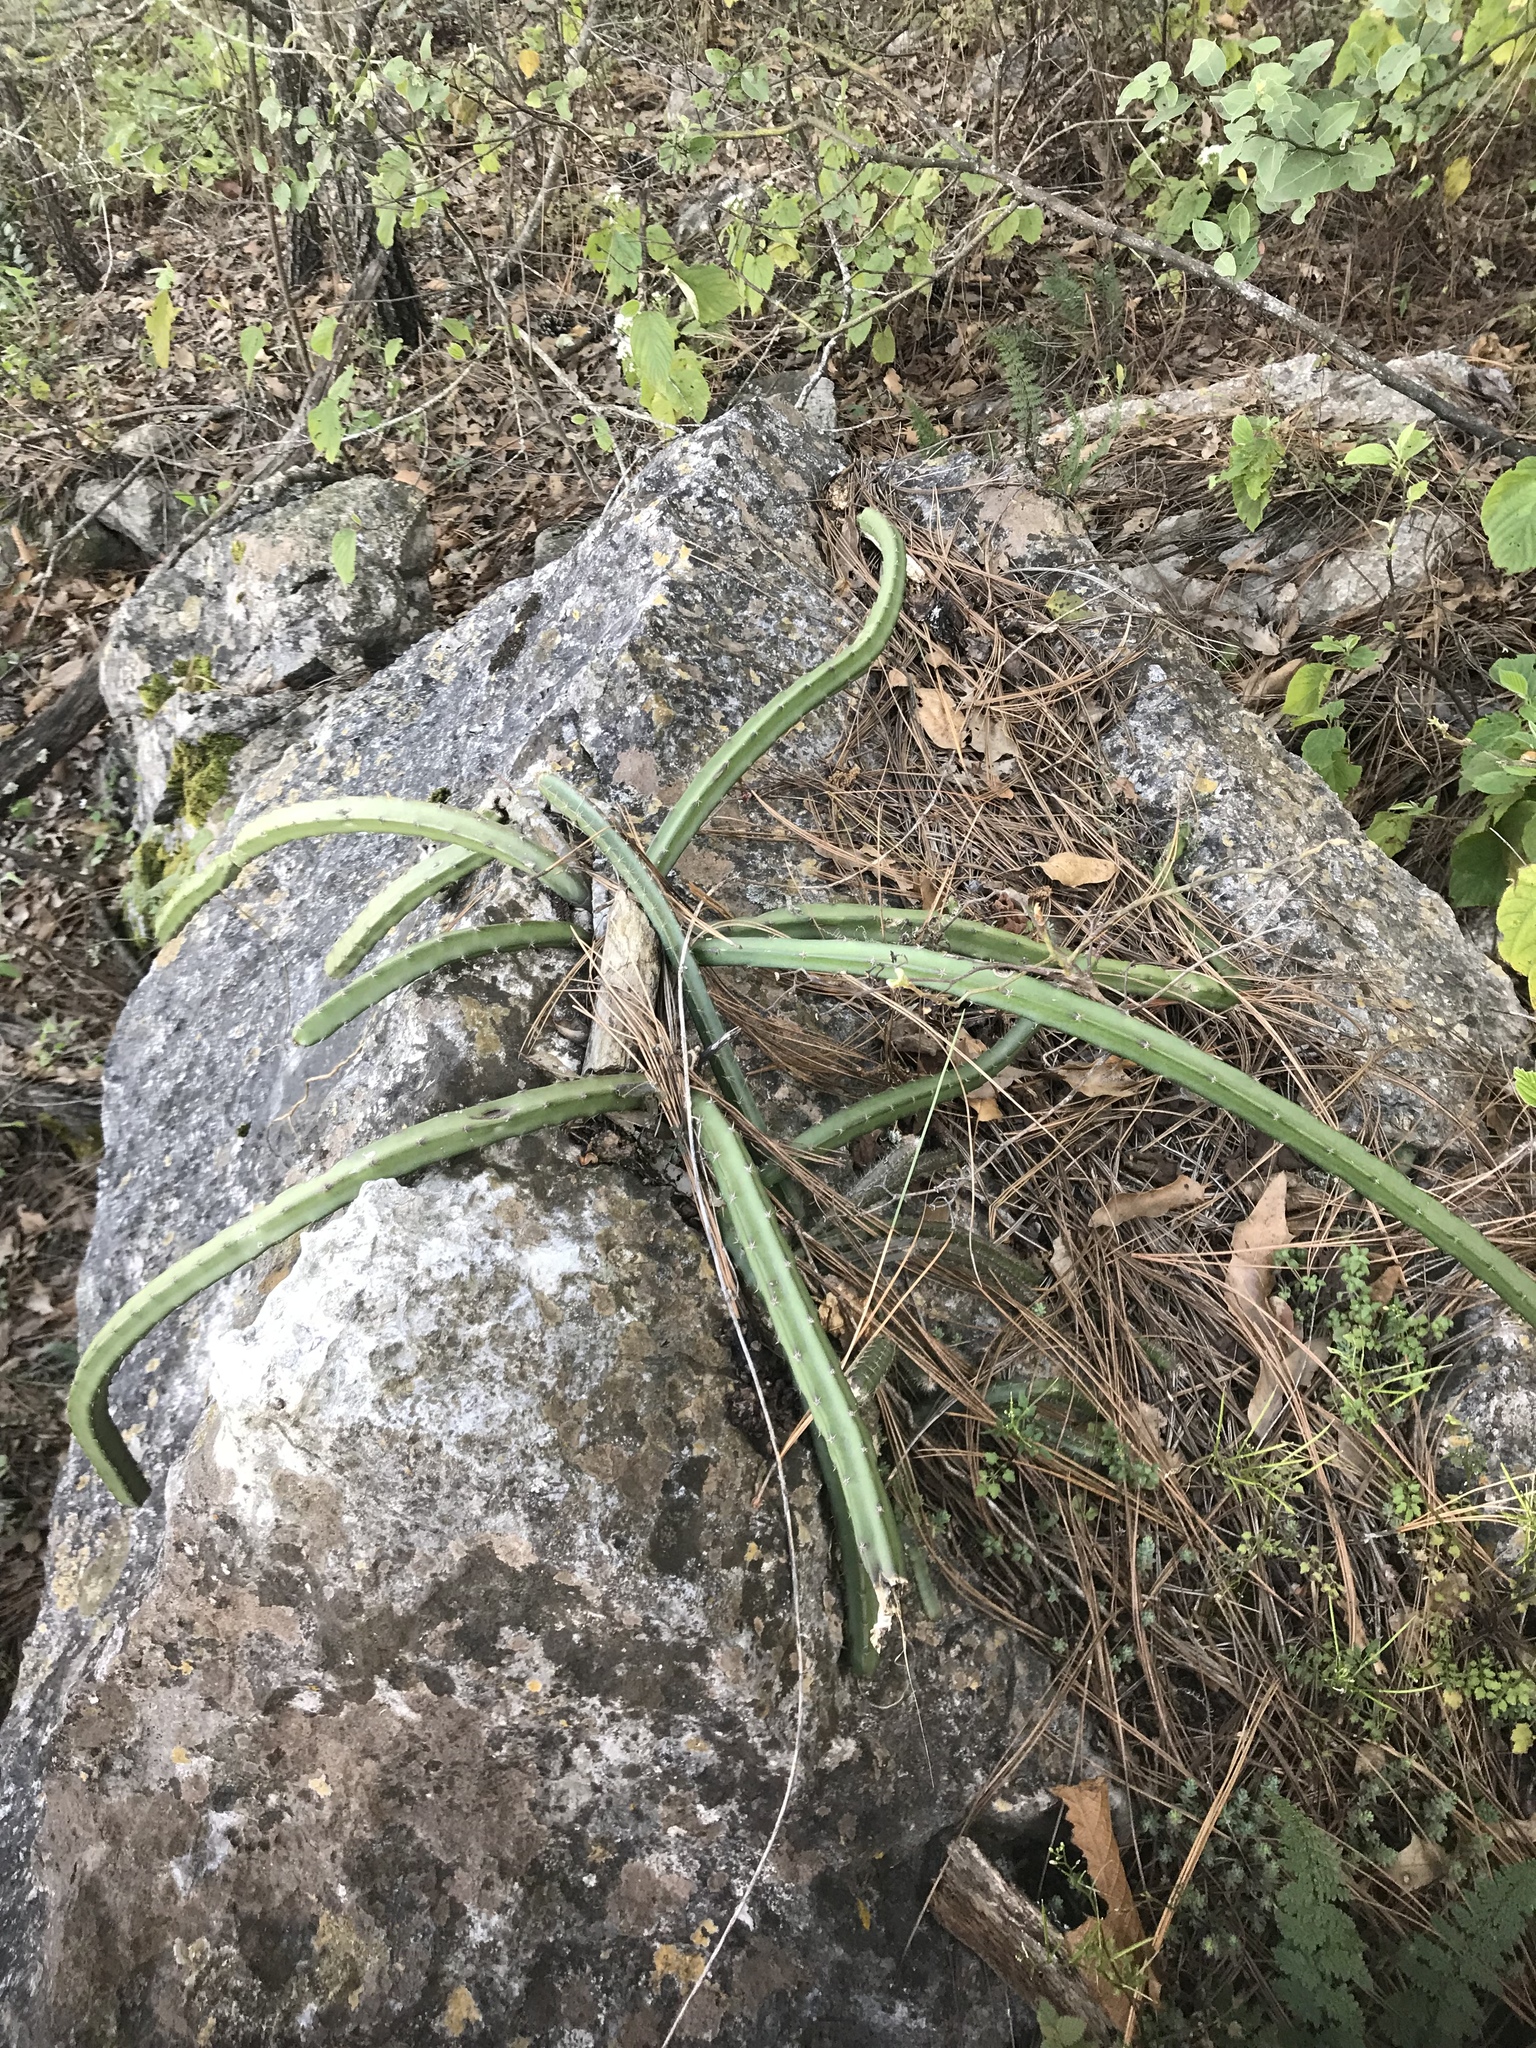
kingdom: Plantae
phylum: Tracheophyta
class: Magnoliopsida
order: Caryophyllales
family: Cactaceae
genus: Selenicereus
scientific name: Selenicereus spinulosus
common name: Nightblooming cereus
